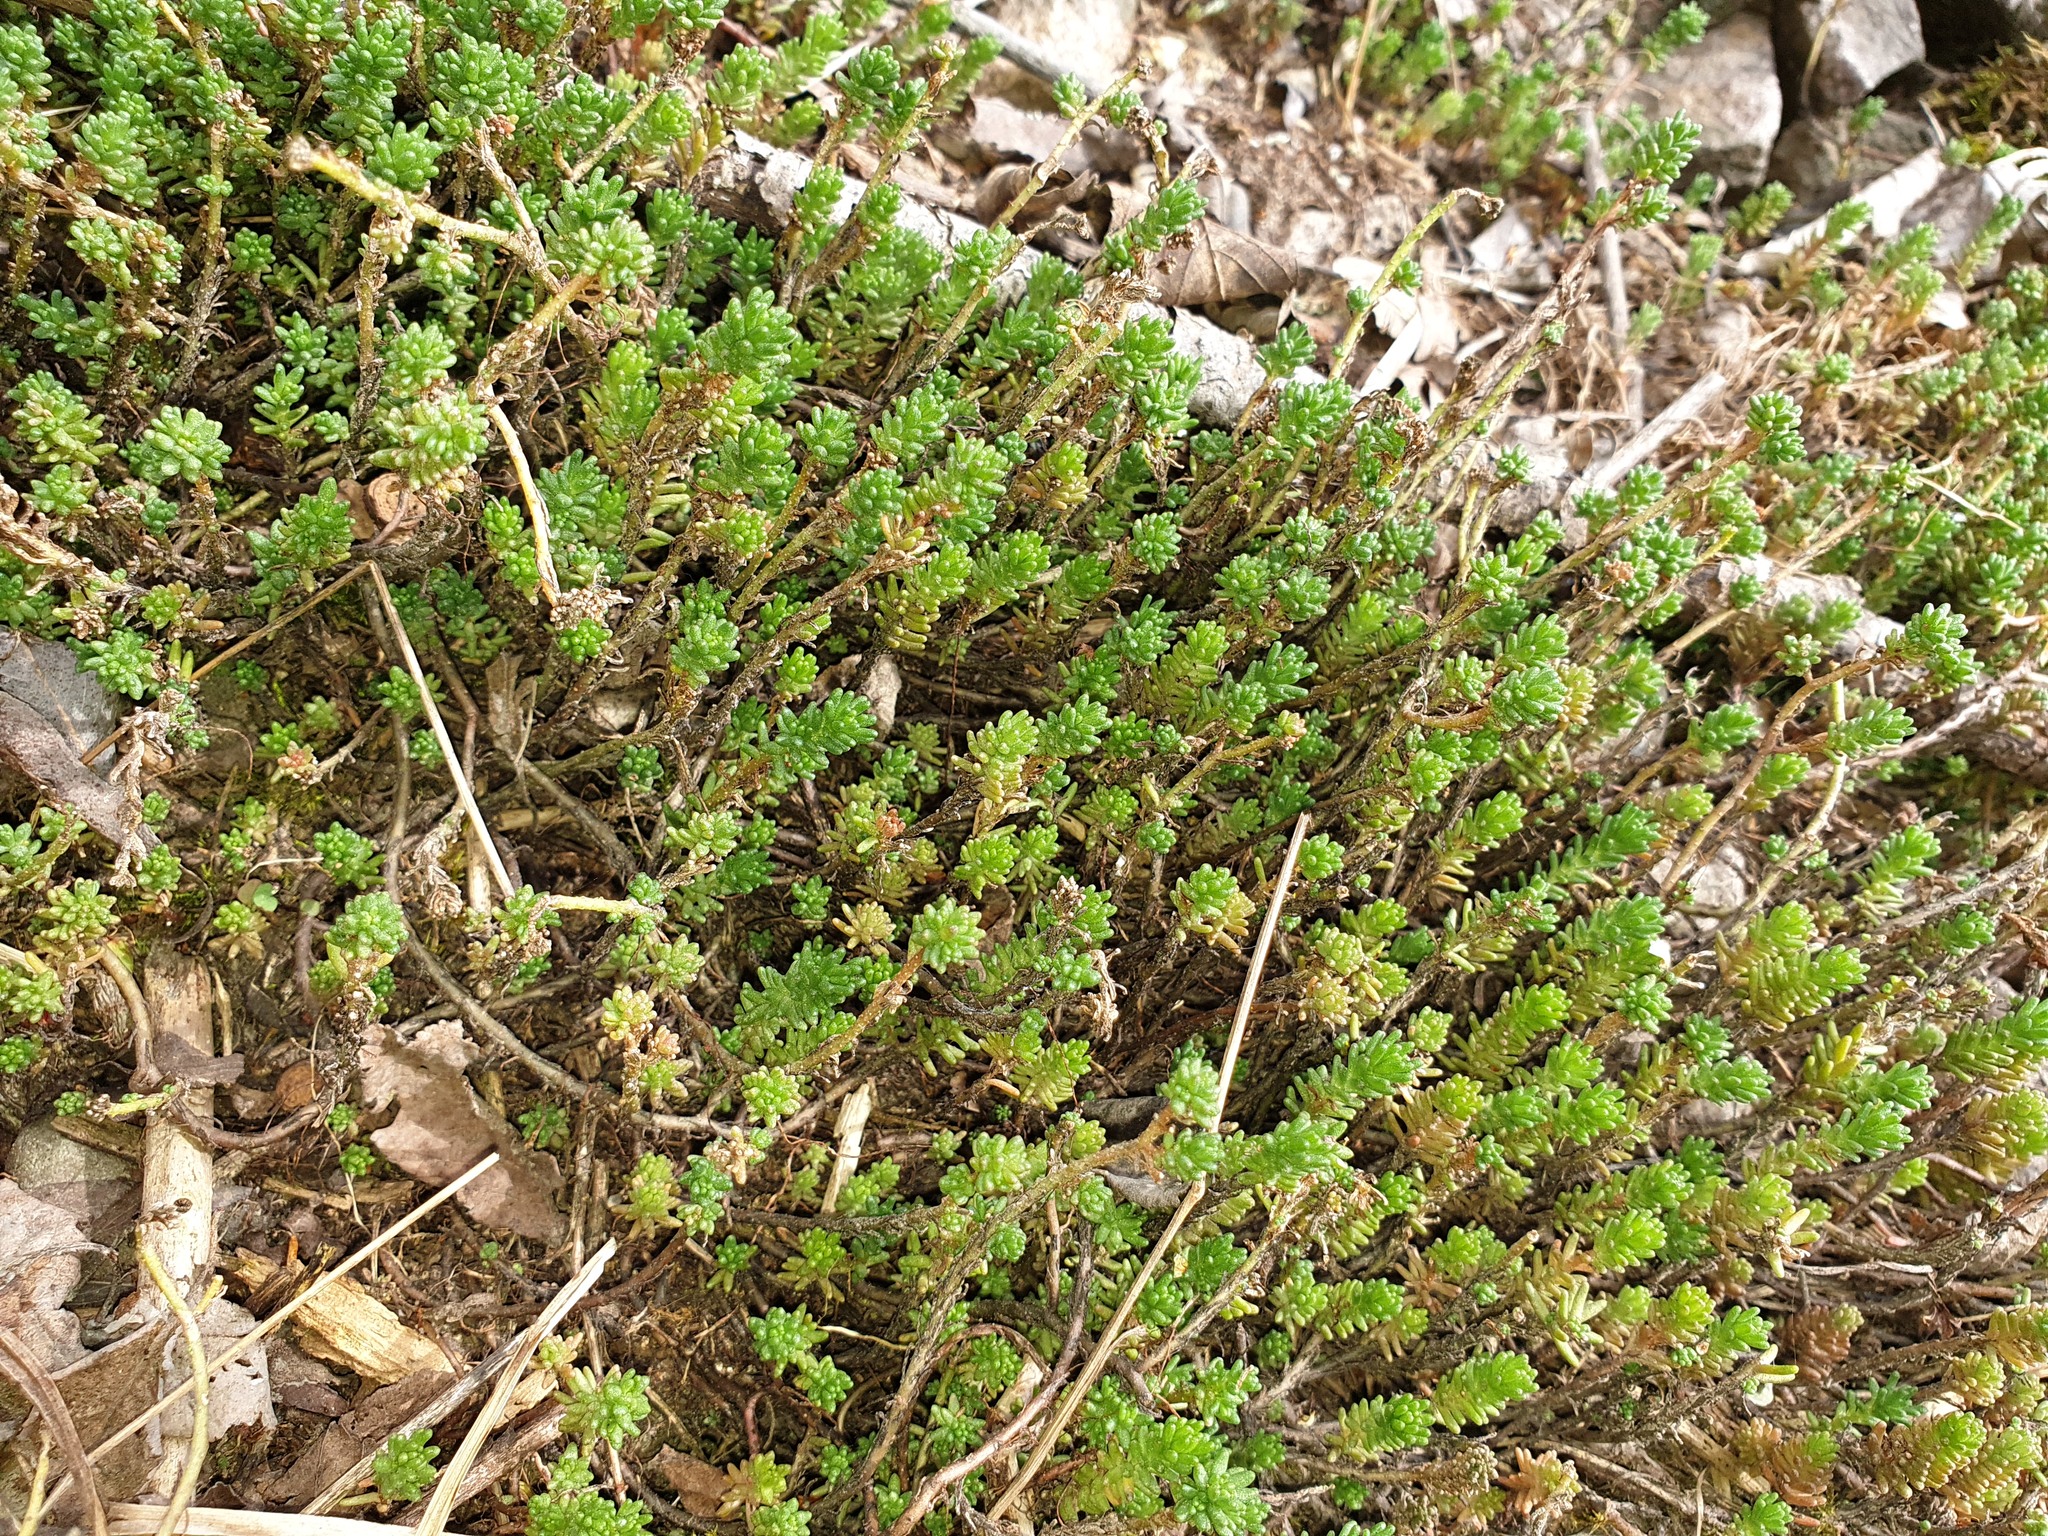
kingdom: Plantae
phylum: Tracheophyta
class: Magnoliopsida
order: Saxifragales
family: Crassulaceae
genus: Sedum
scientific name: Sedum sexangulare
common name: Tasteless stonecrop
